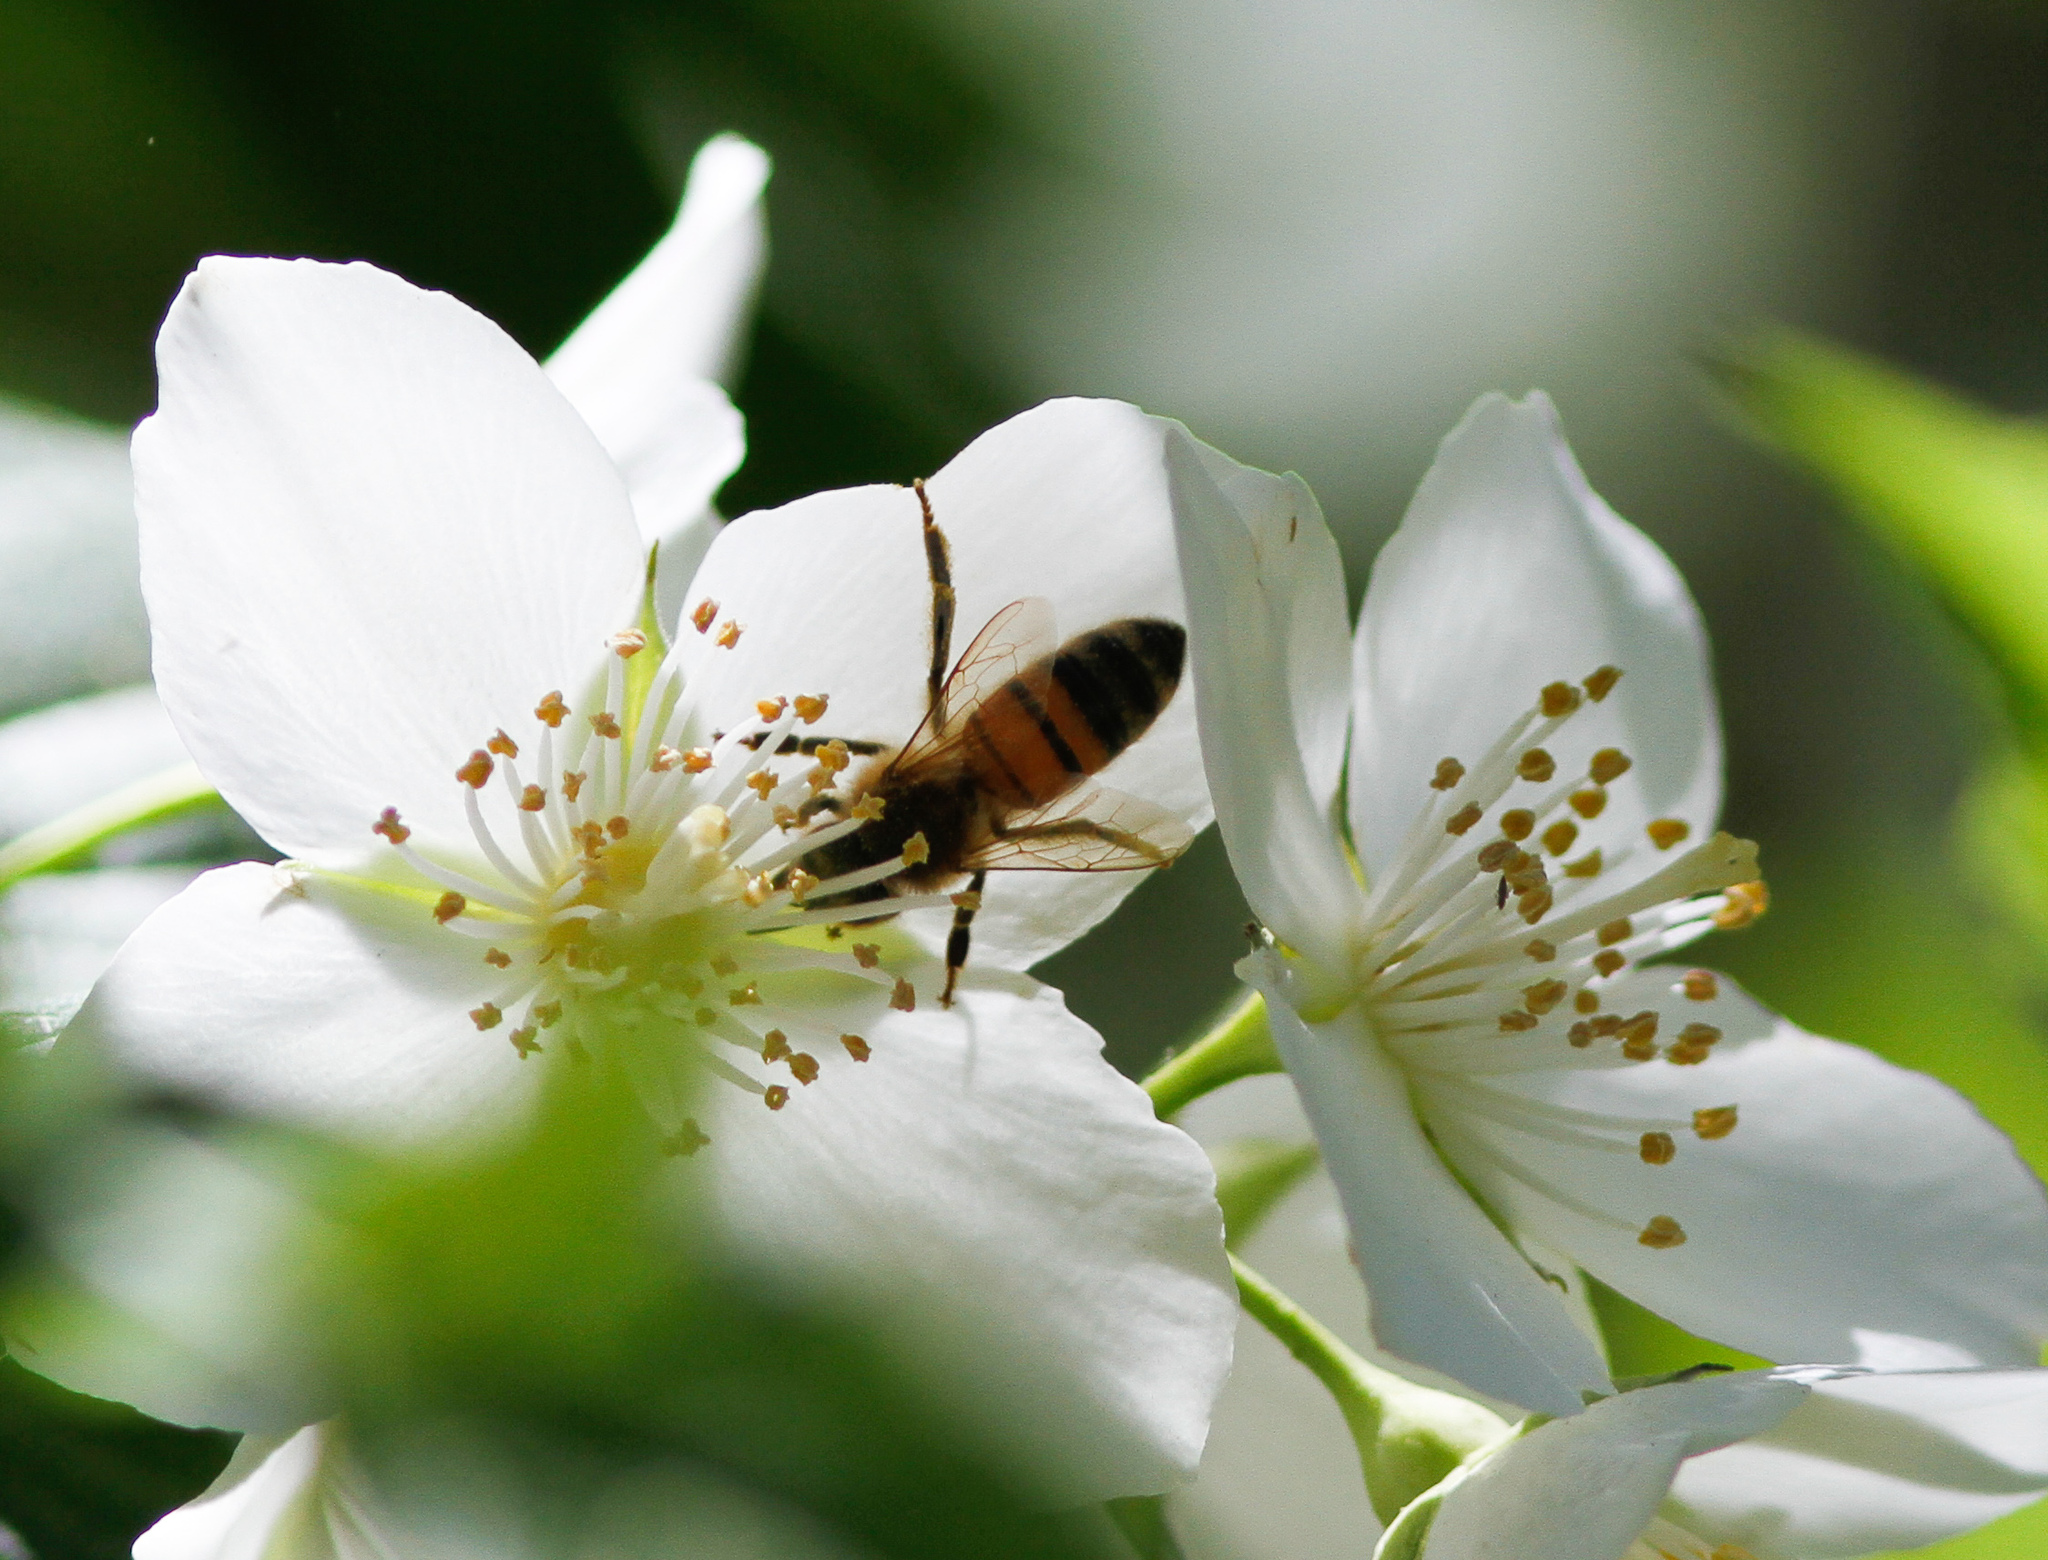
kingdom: Animalia
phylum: Arthropoda
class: Insecta
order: Hymenoptera
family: Apidae
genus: Apis
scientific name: Apis mellifera
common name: Honey bee
